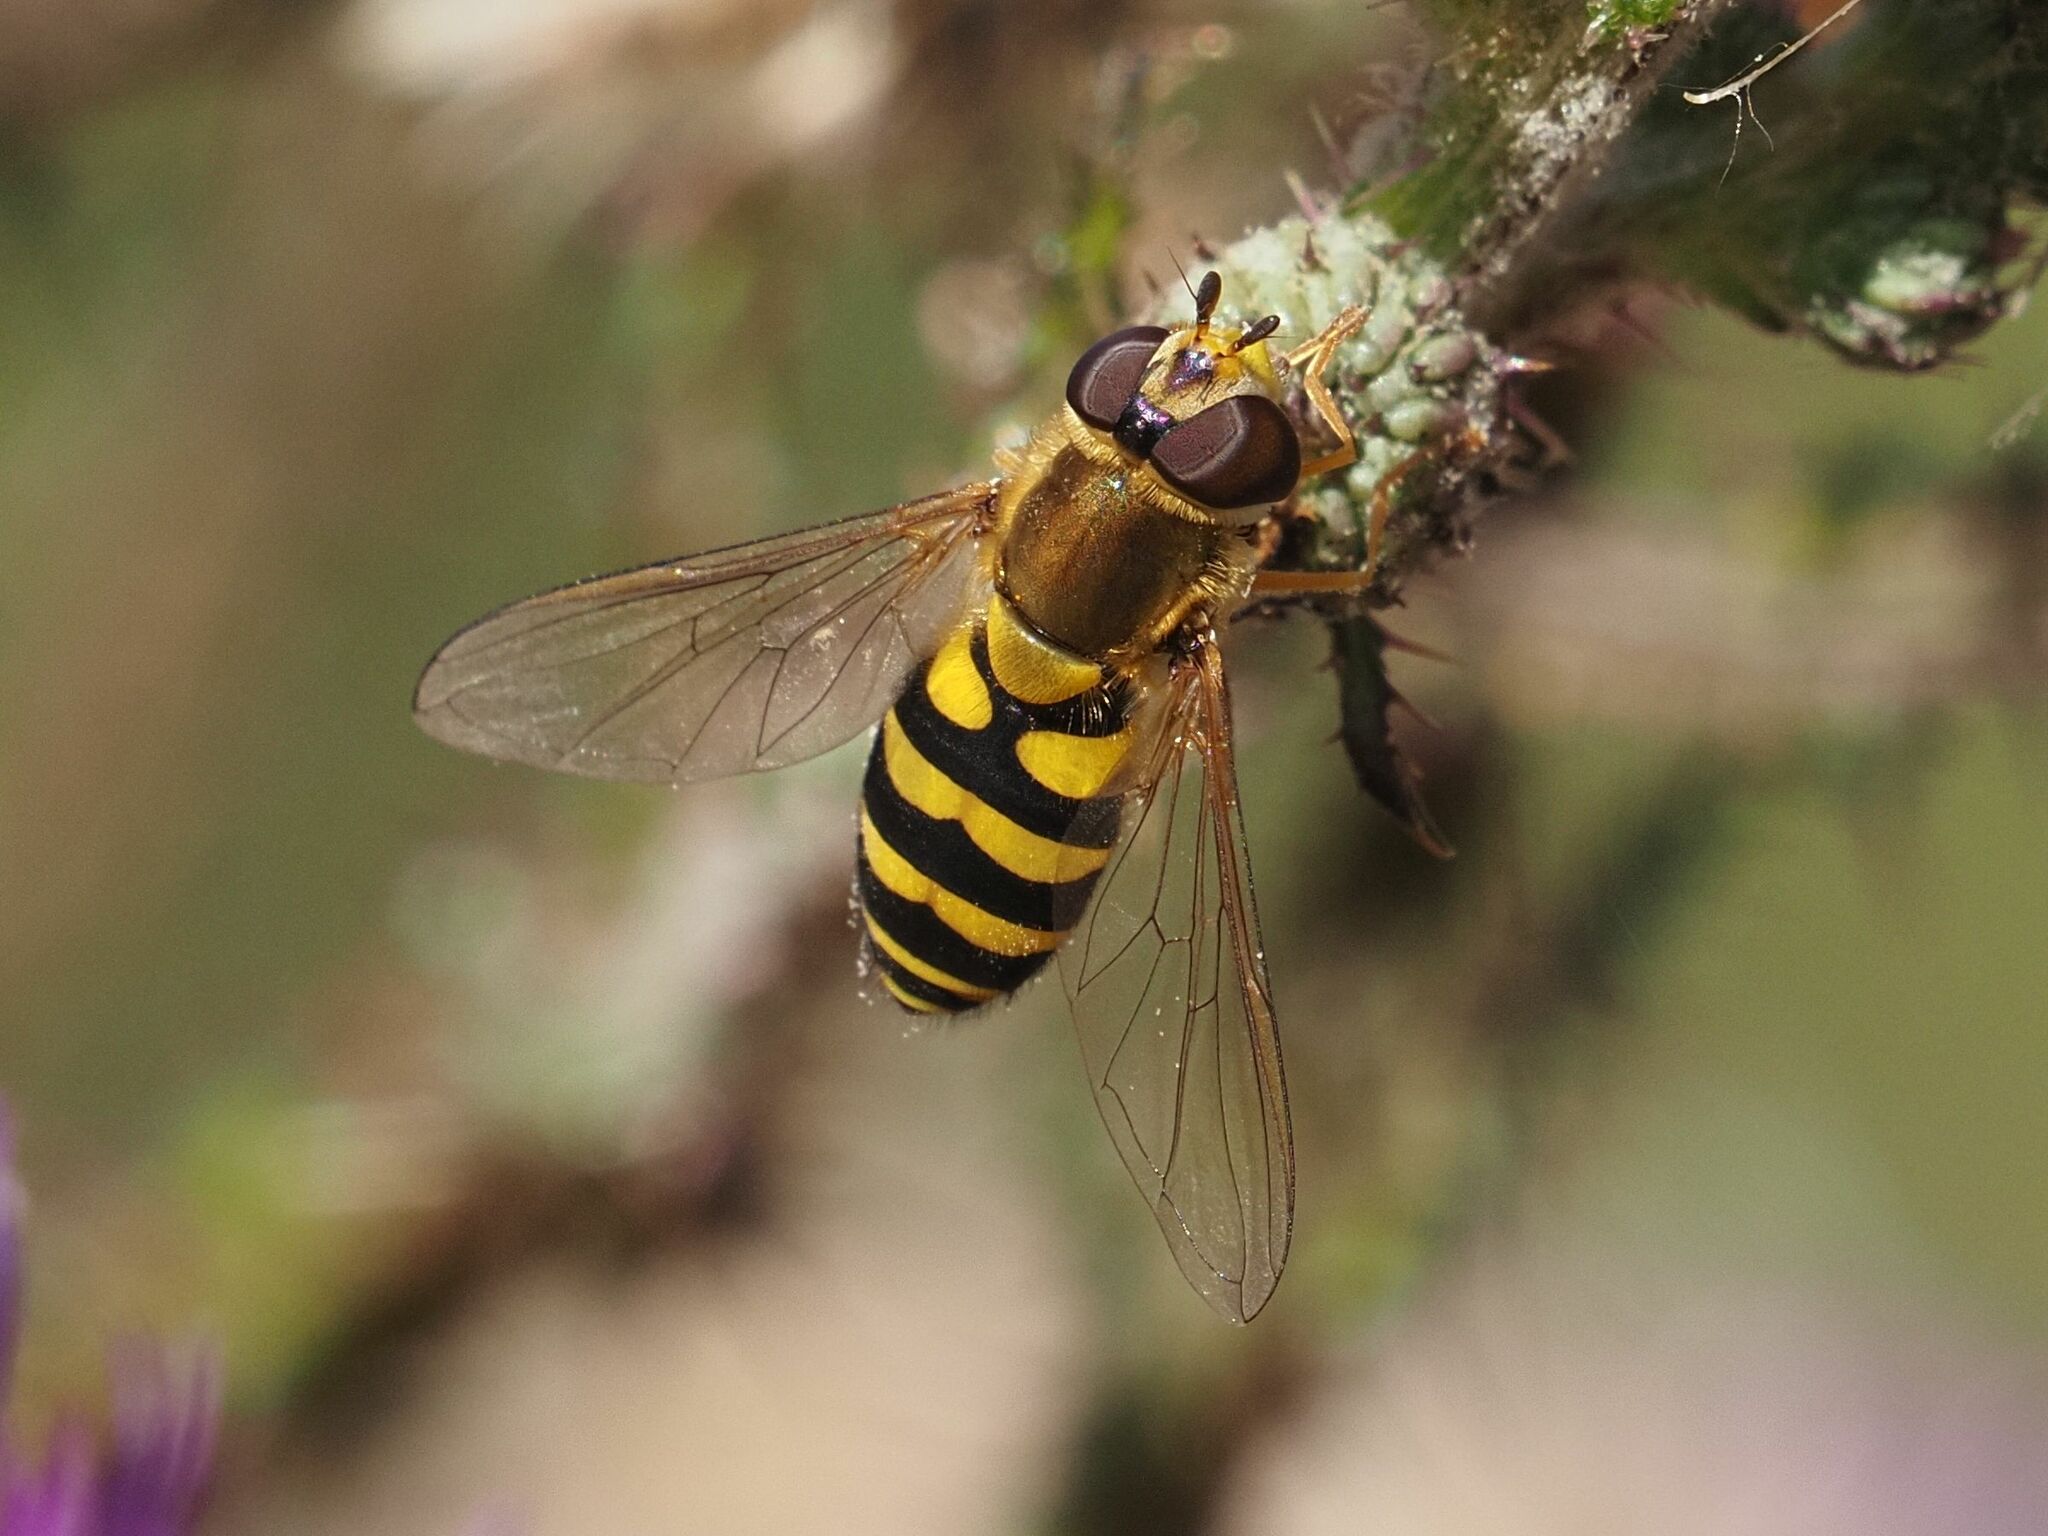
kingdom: Animalia
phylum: Arthropoda
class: Insecta
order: Diptera
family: Syrphidae
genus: Syrphus
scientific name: Syrphus
